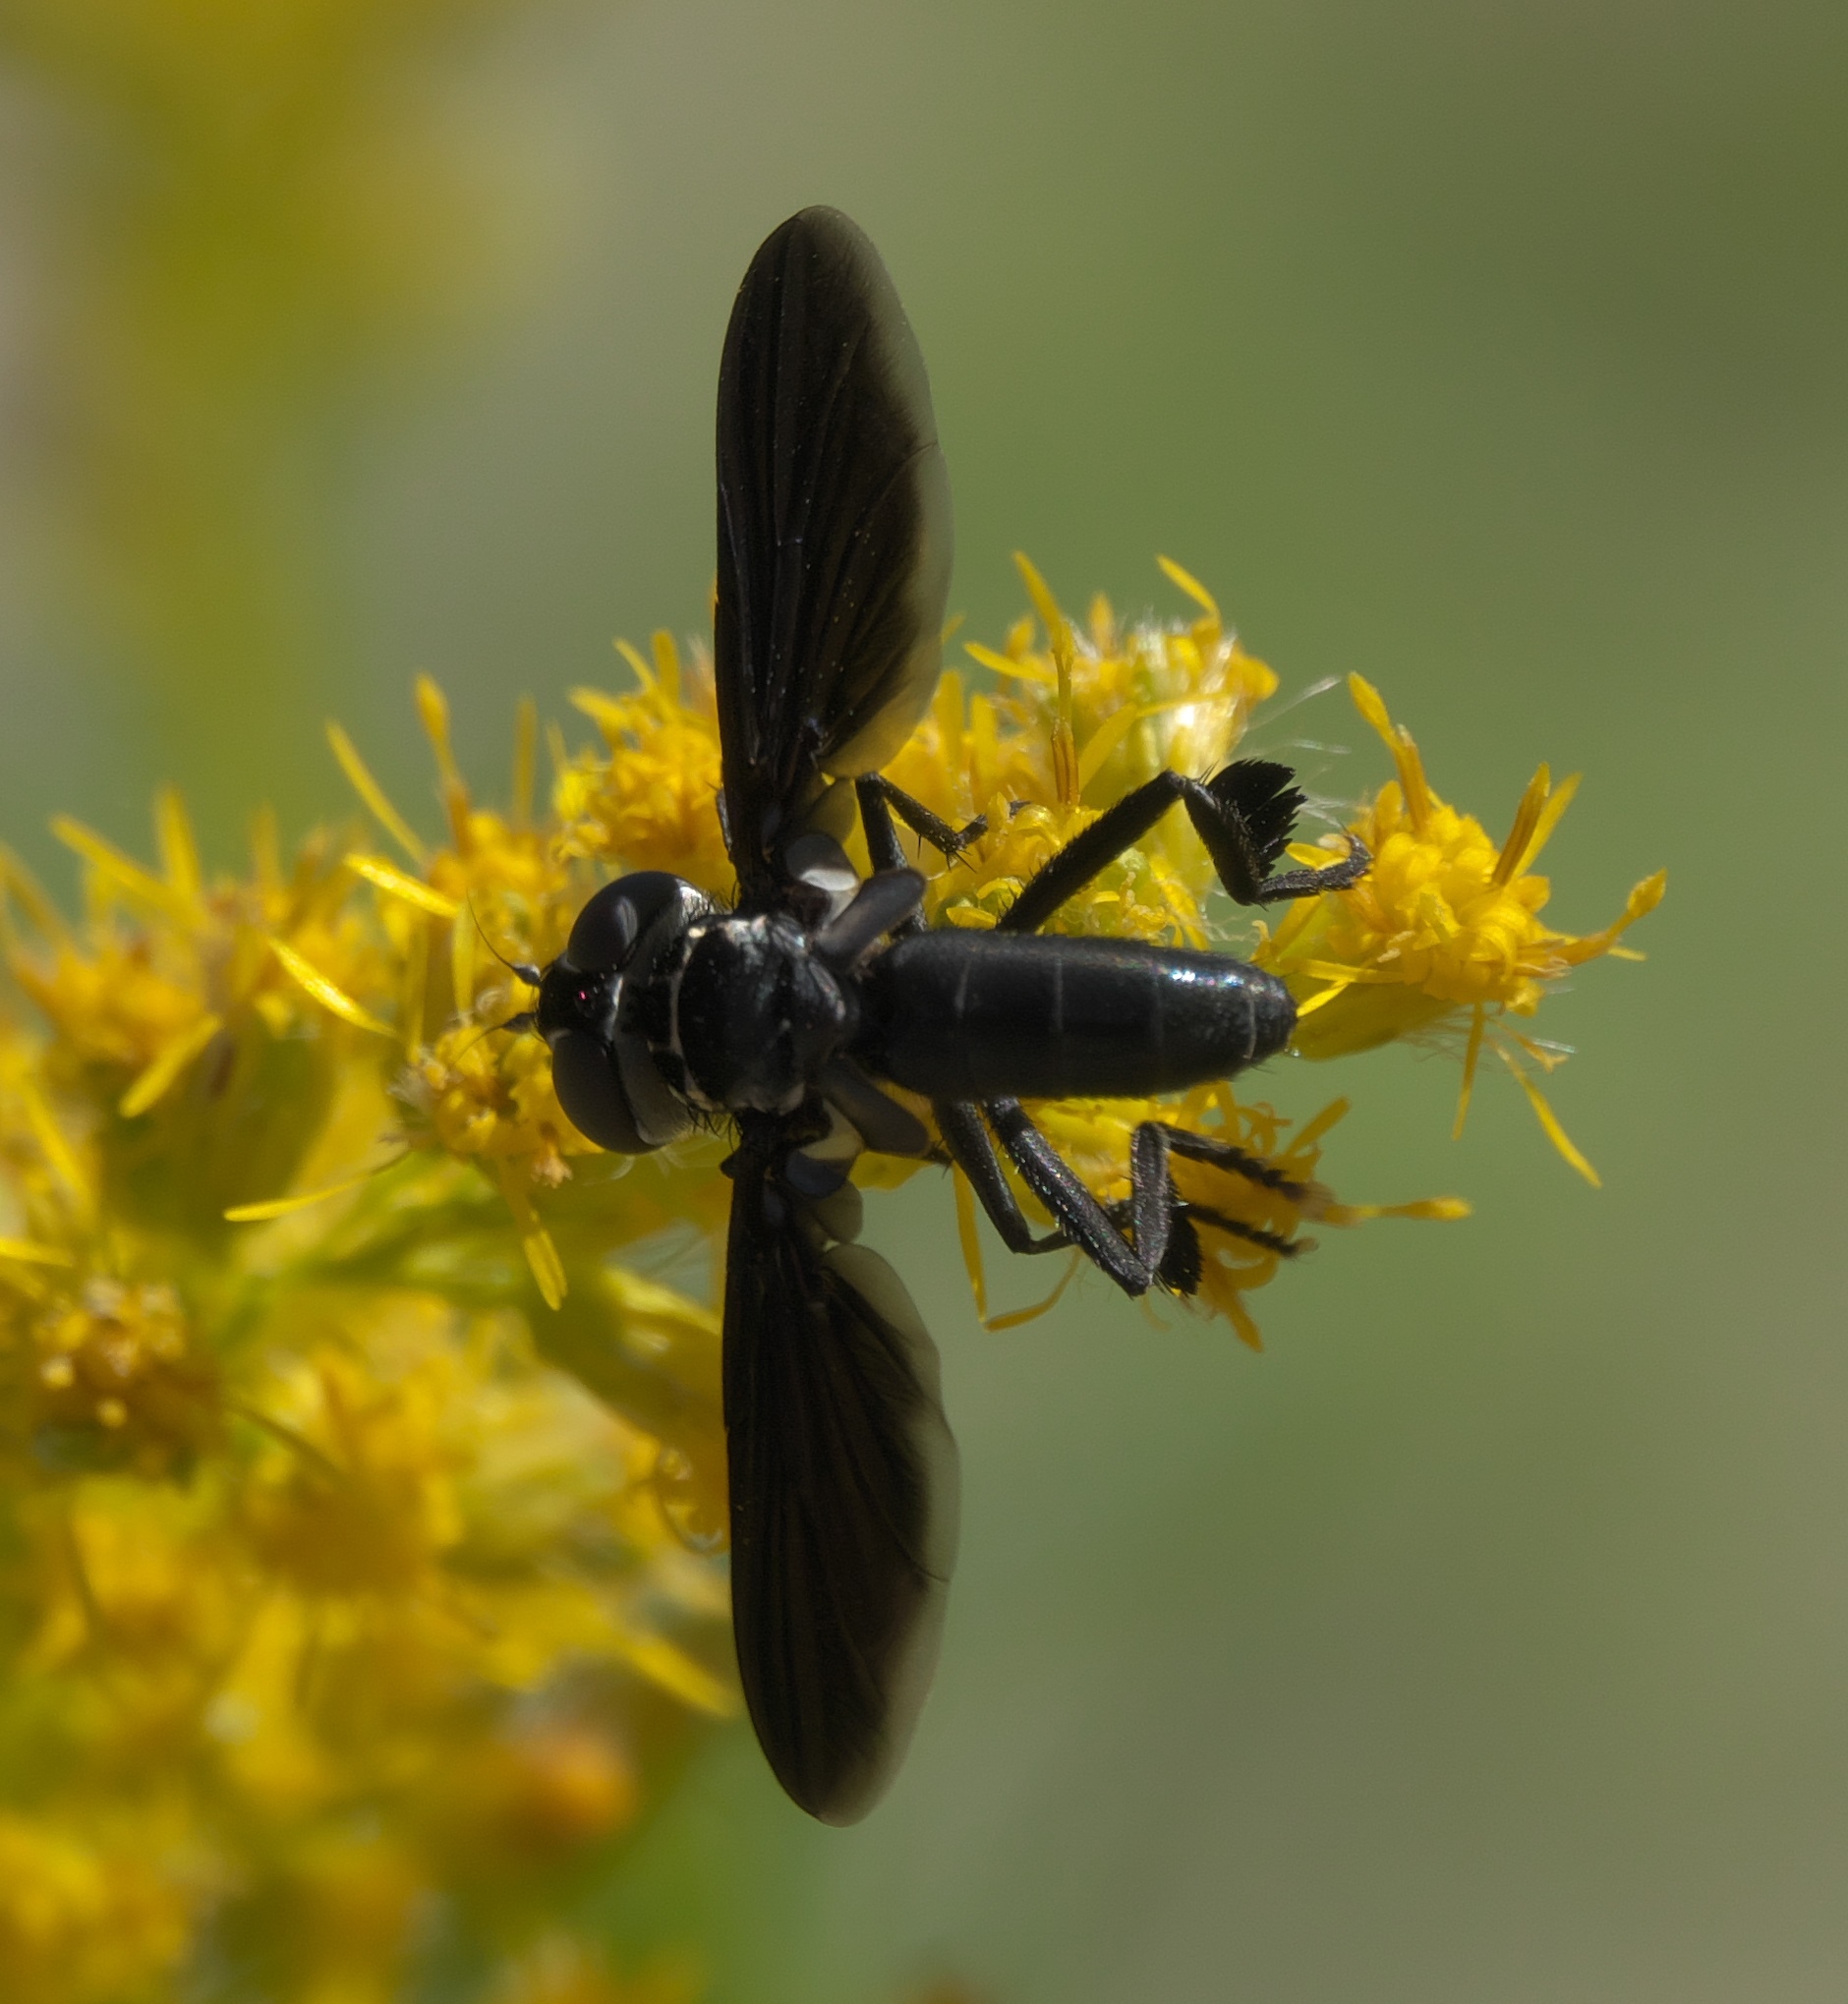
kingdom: Animalia
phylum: Arthropoda
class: Insecta
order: Diptera
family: Tachinidae
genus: Trichopoda
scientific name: Trichopoda lanipes
